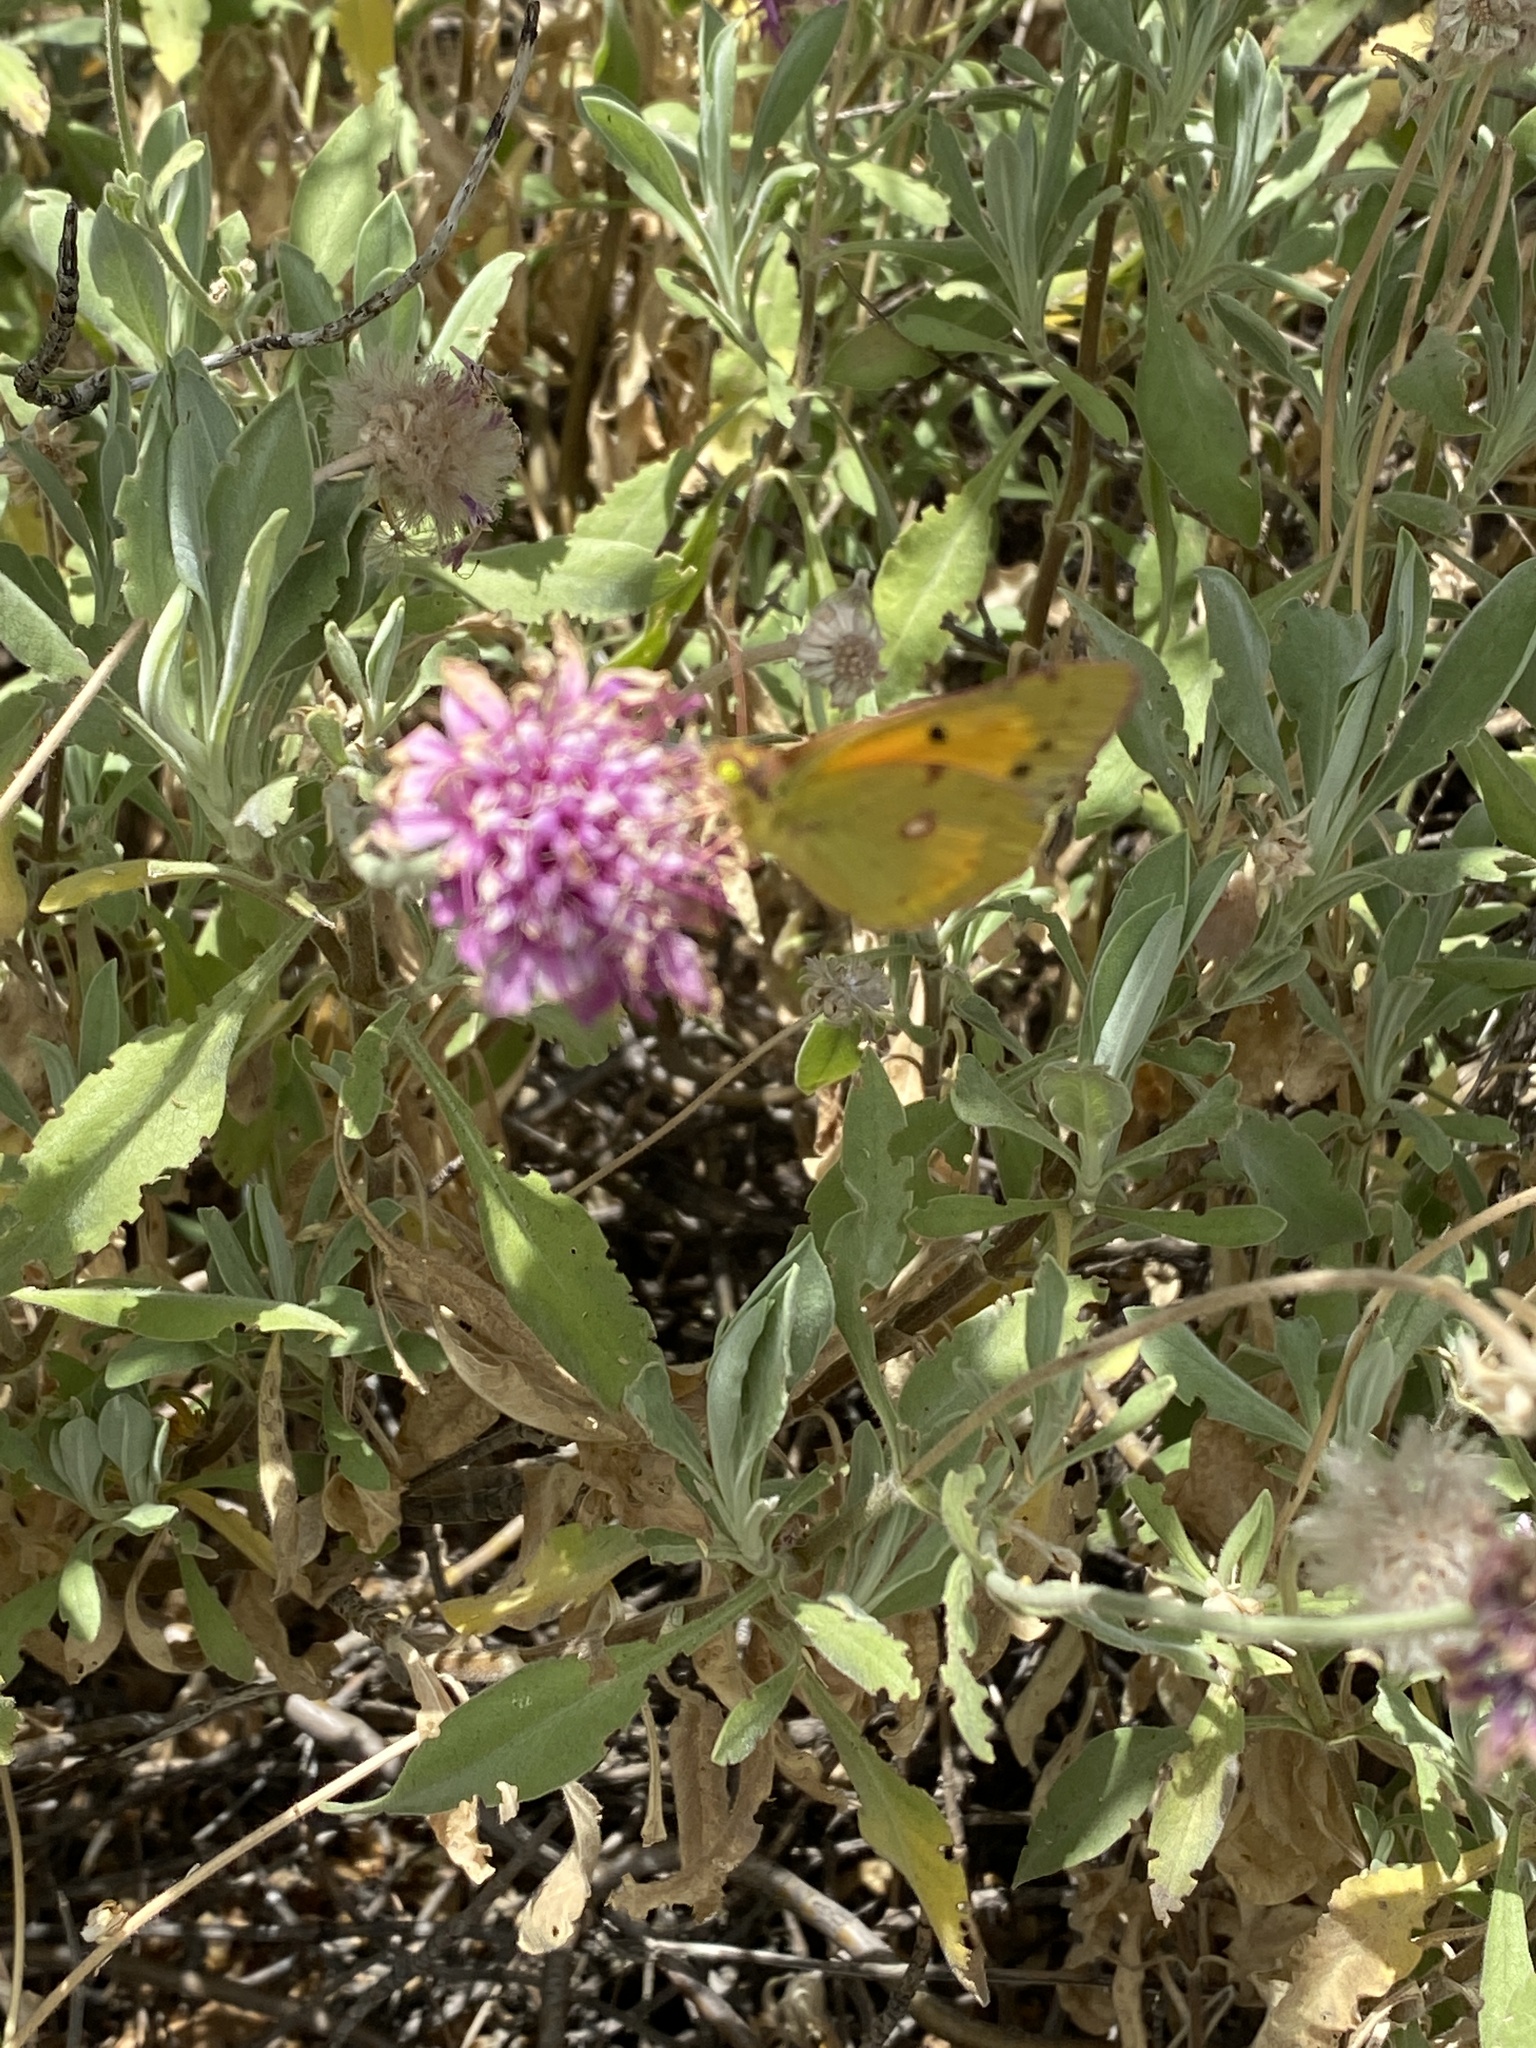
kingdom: Animalia
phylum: Arthropoda
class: Insecta
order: Lepidoptera
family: Pieridae
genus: Colias
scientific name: Colias croceus
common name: Clouded yellow
